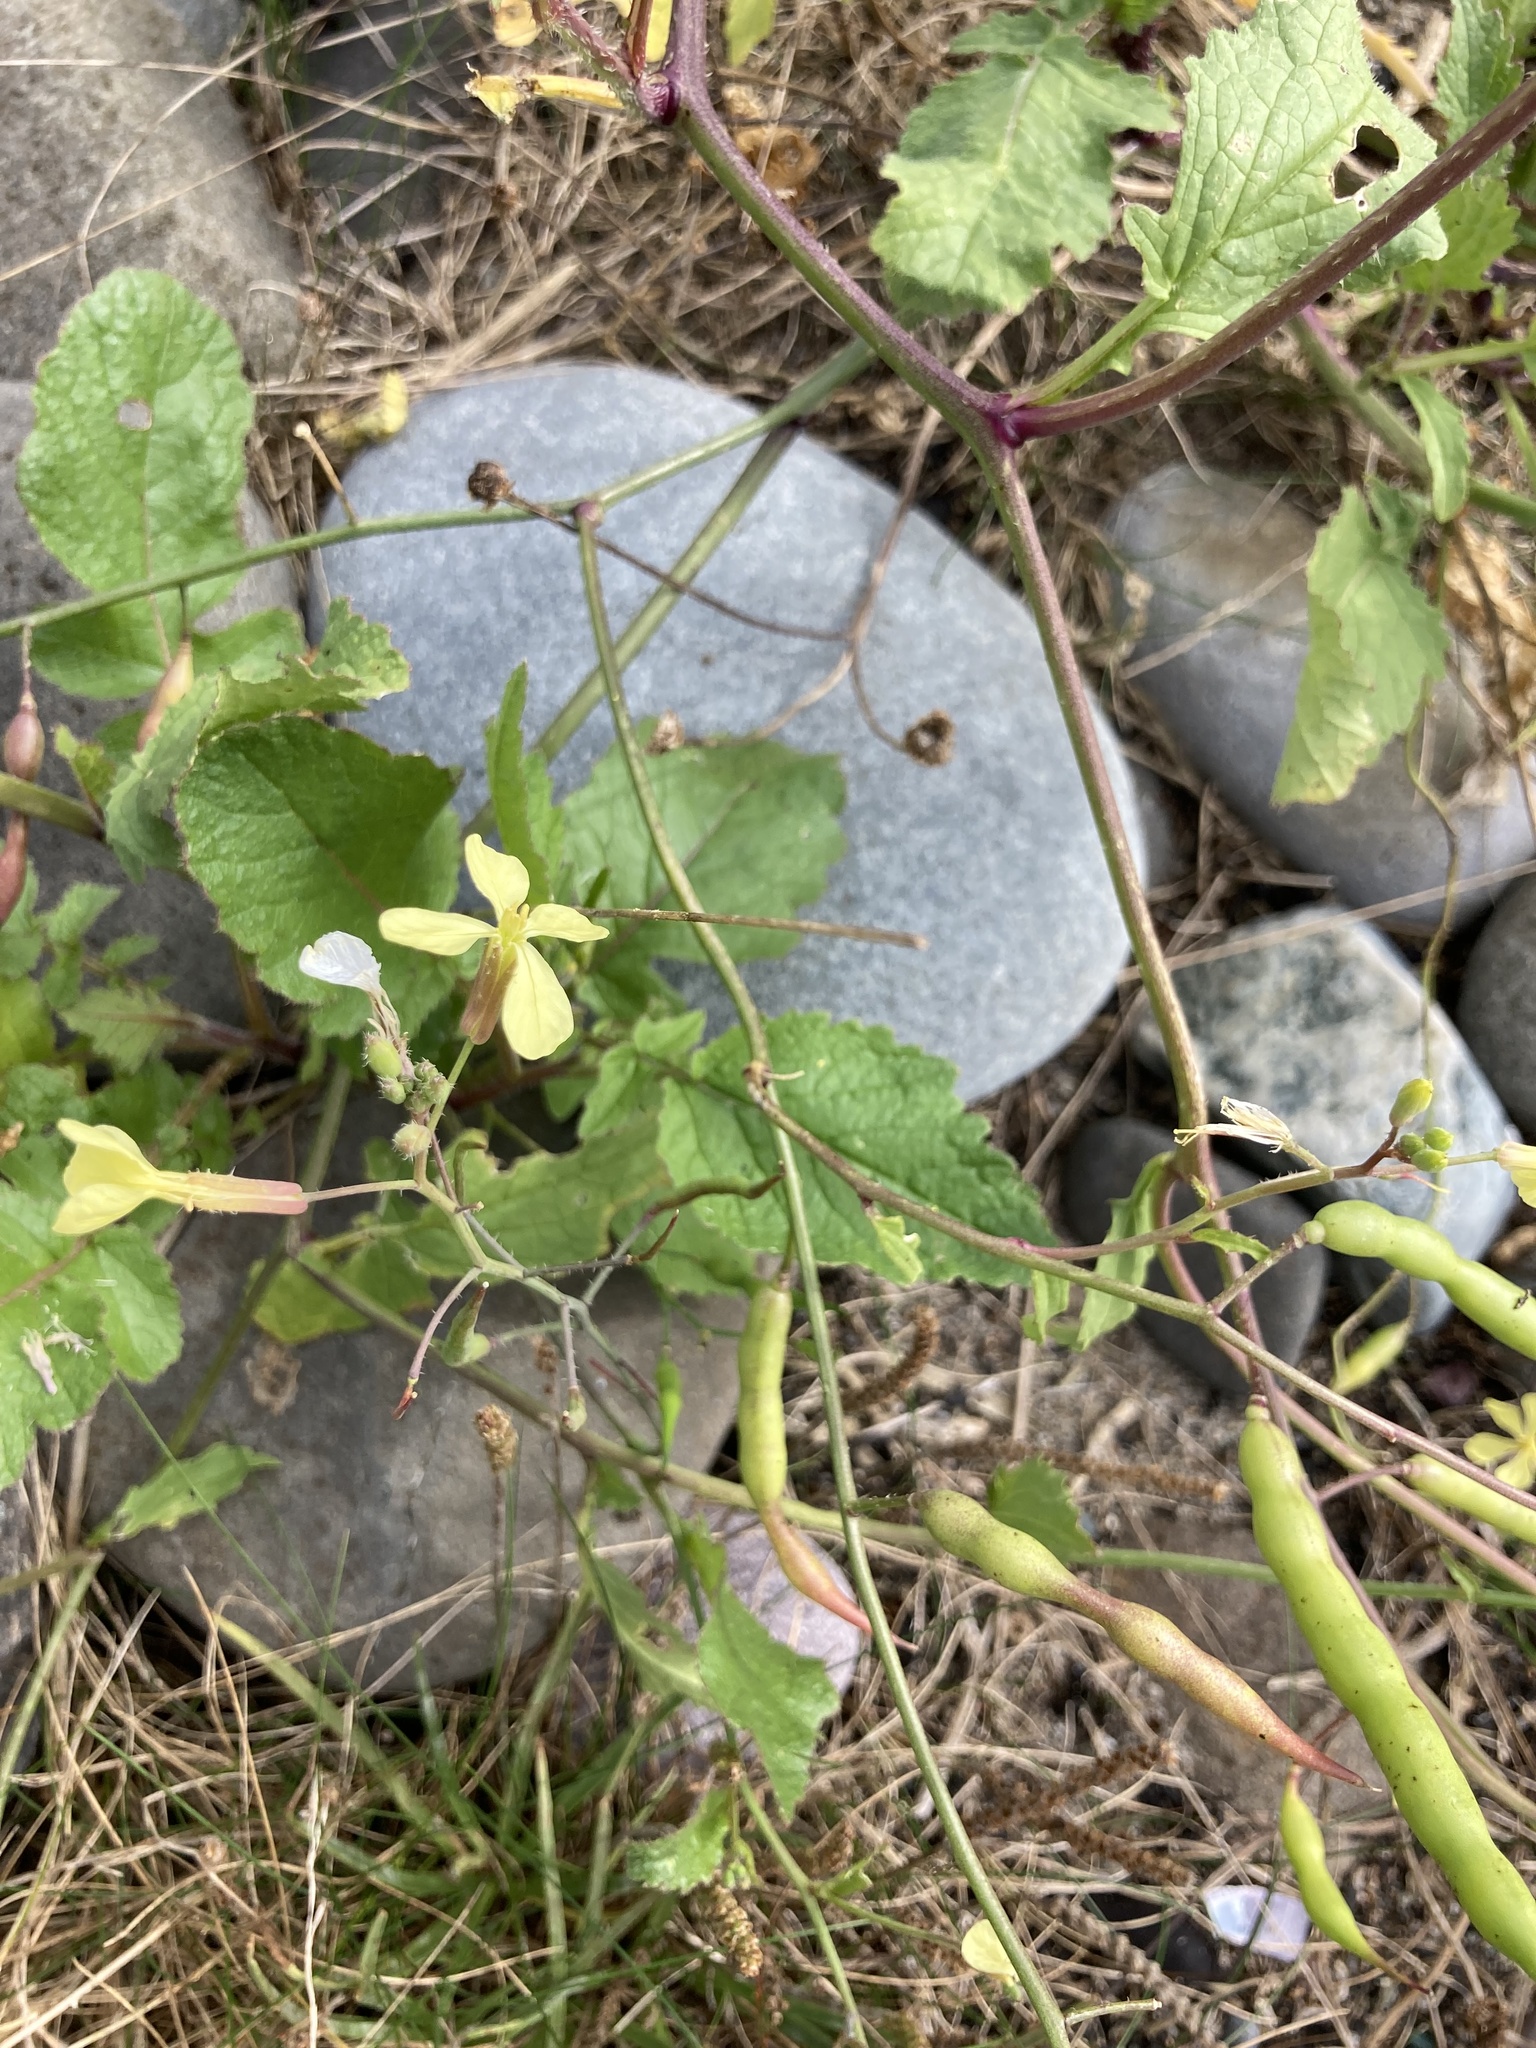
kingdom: Plantae
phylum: Tracheophyta
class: Magnoliopsida
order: Brassicales
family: Brassicaceae
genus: Raphanus
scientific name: Raphanus raphanistrum
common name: Wild radish
